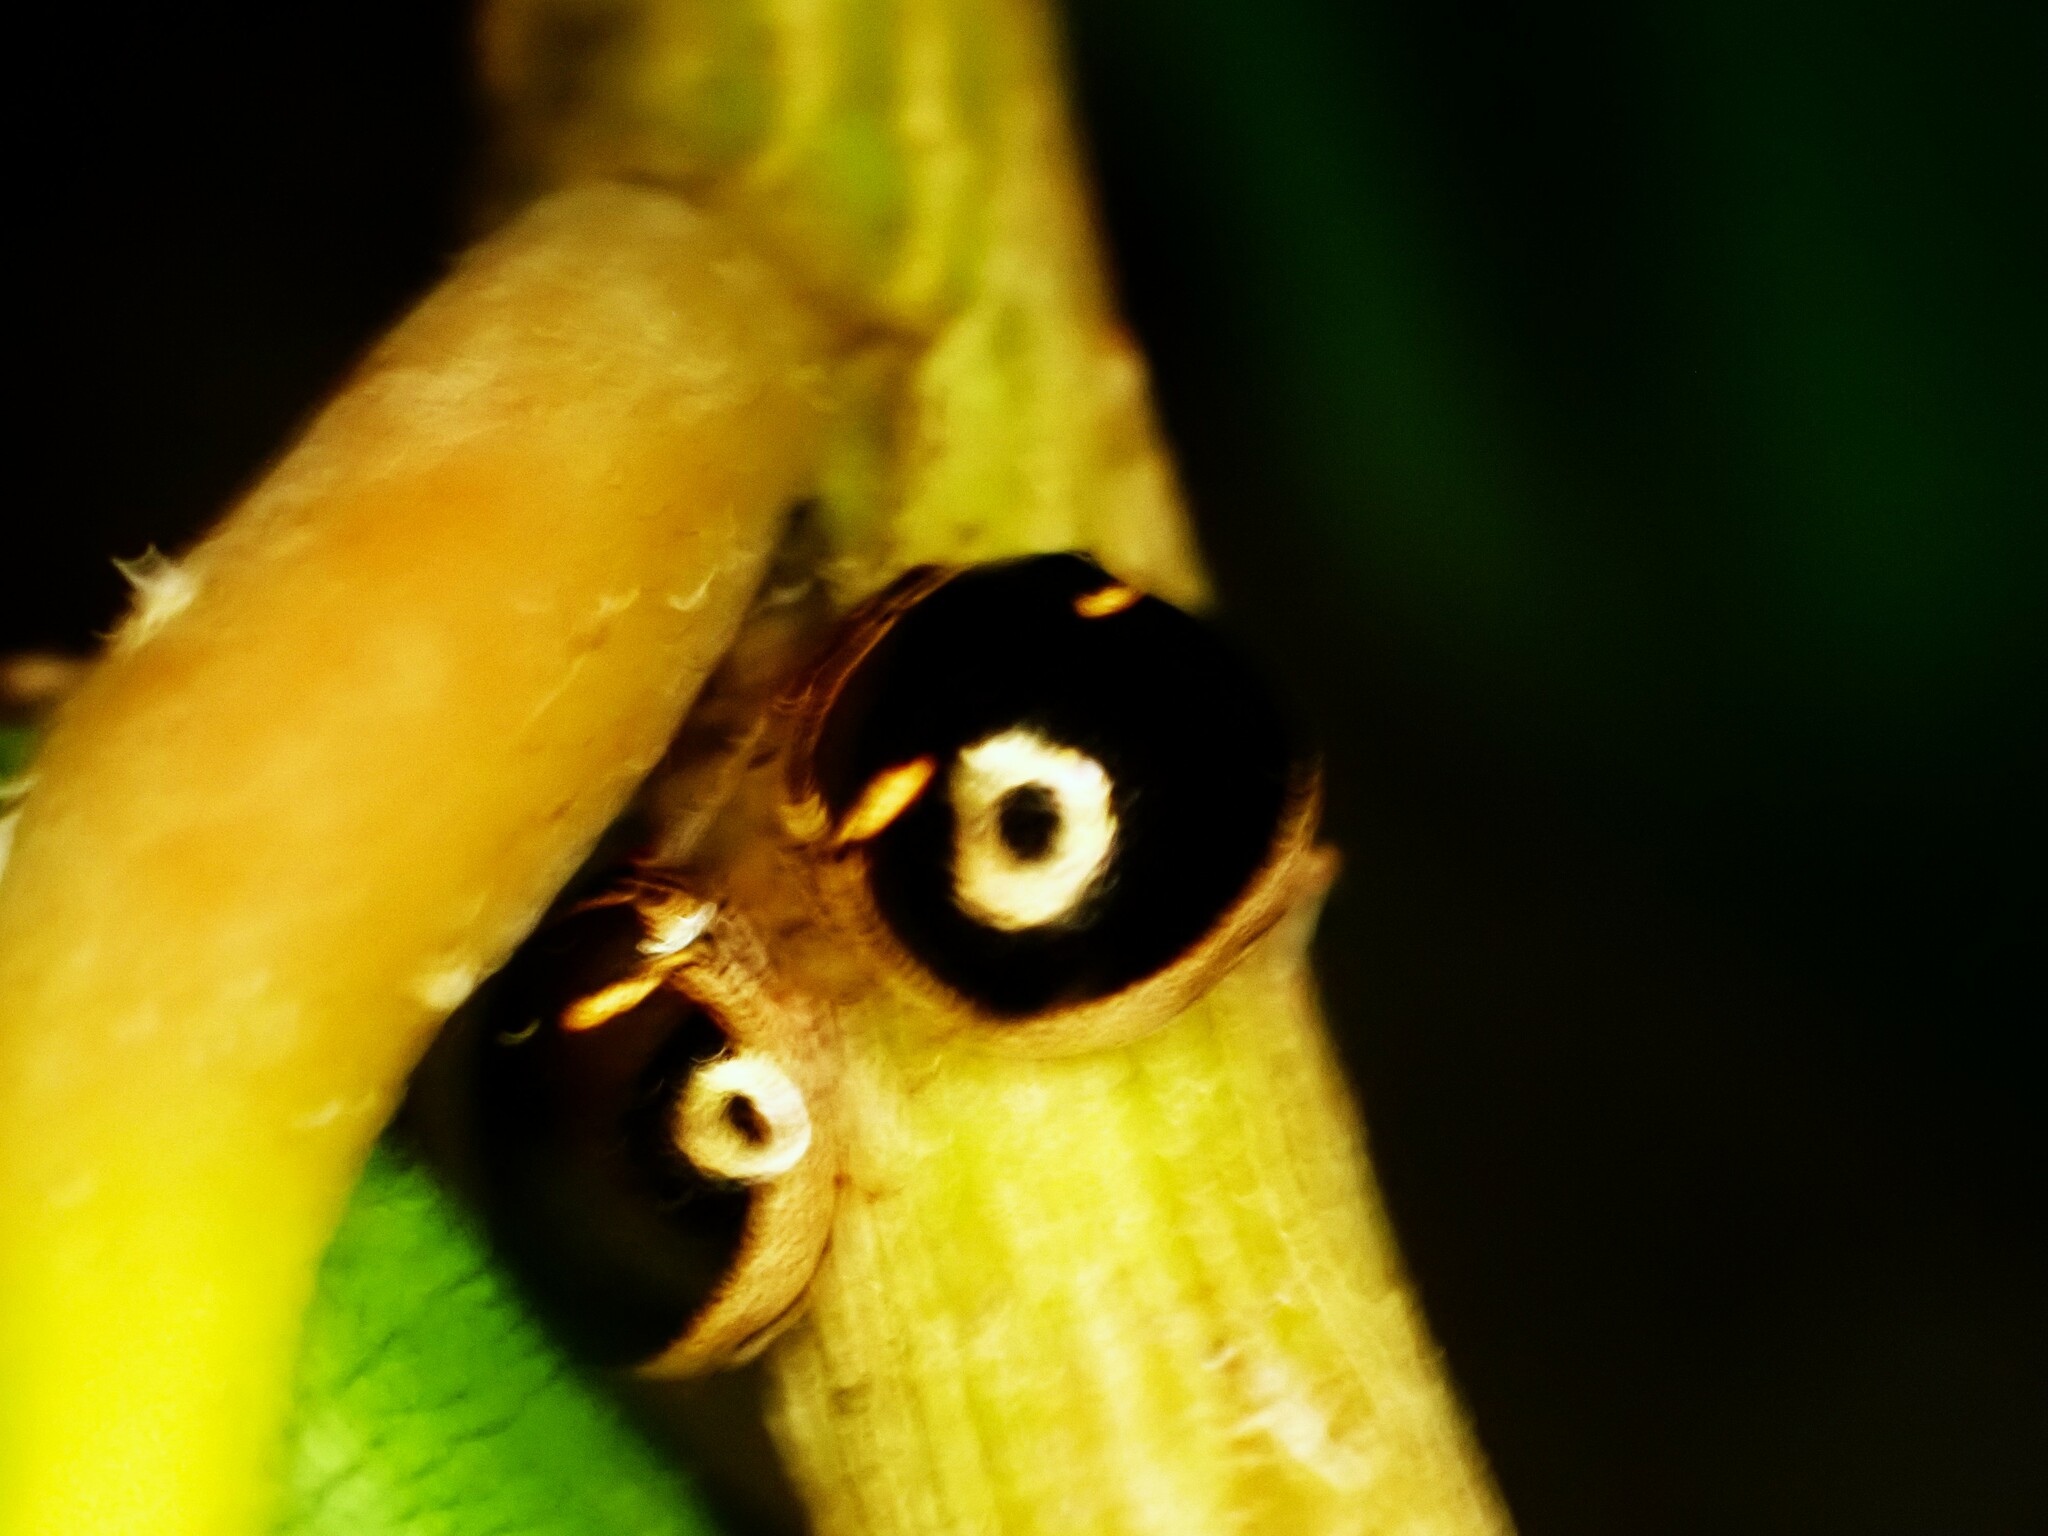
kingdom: Animalia
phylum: Arthropoda
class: Insecta
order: Hemiptera
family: Plataspidae
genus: Coptosoma
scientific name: Coptosoma
